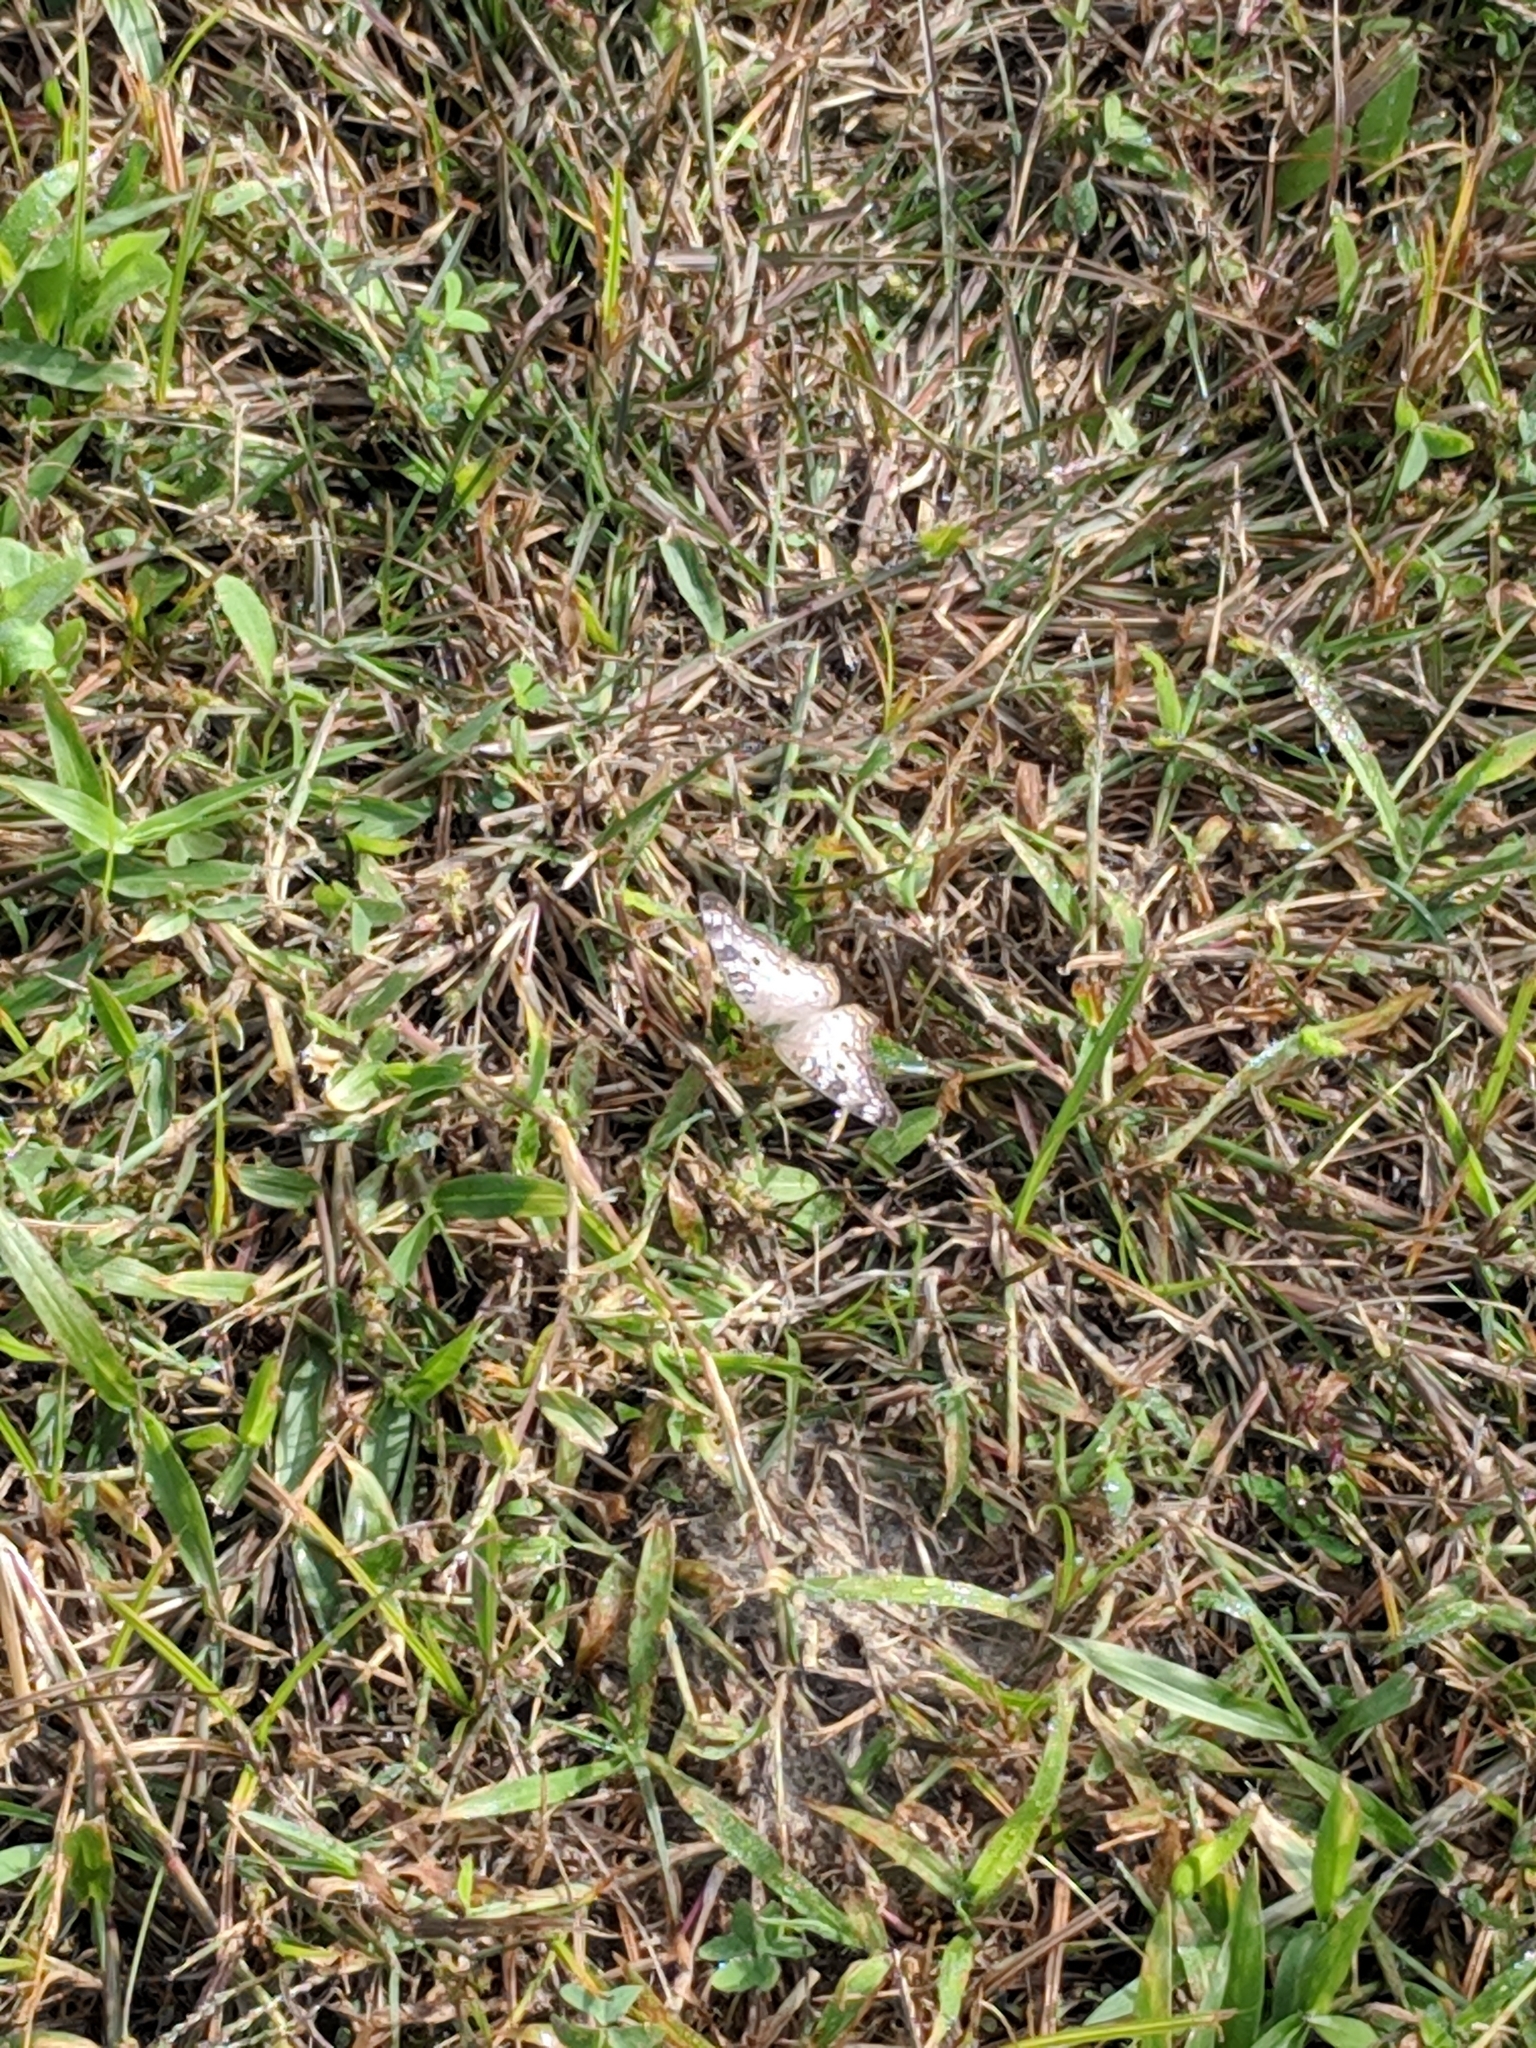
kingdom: Animalia
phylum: Arthropoda
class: Insecta
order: Lepidoptera
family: Nymphalidae
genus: Anartia
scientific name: Anartia jatrophae
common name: White peacock
